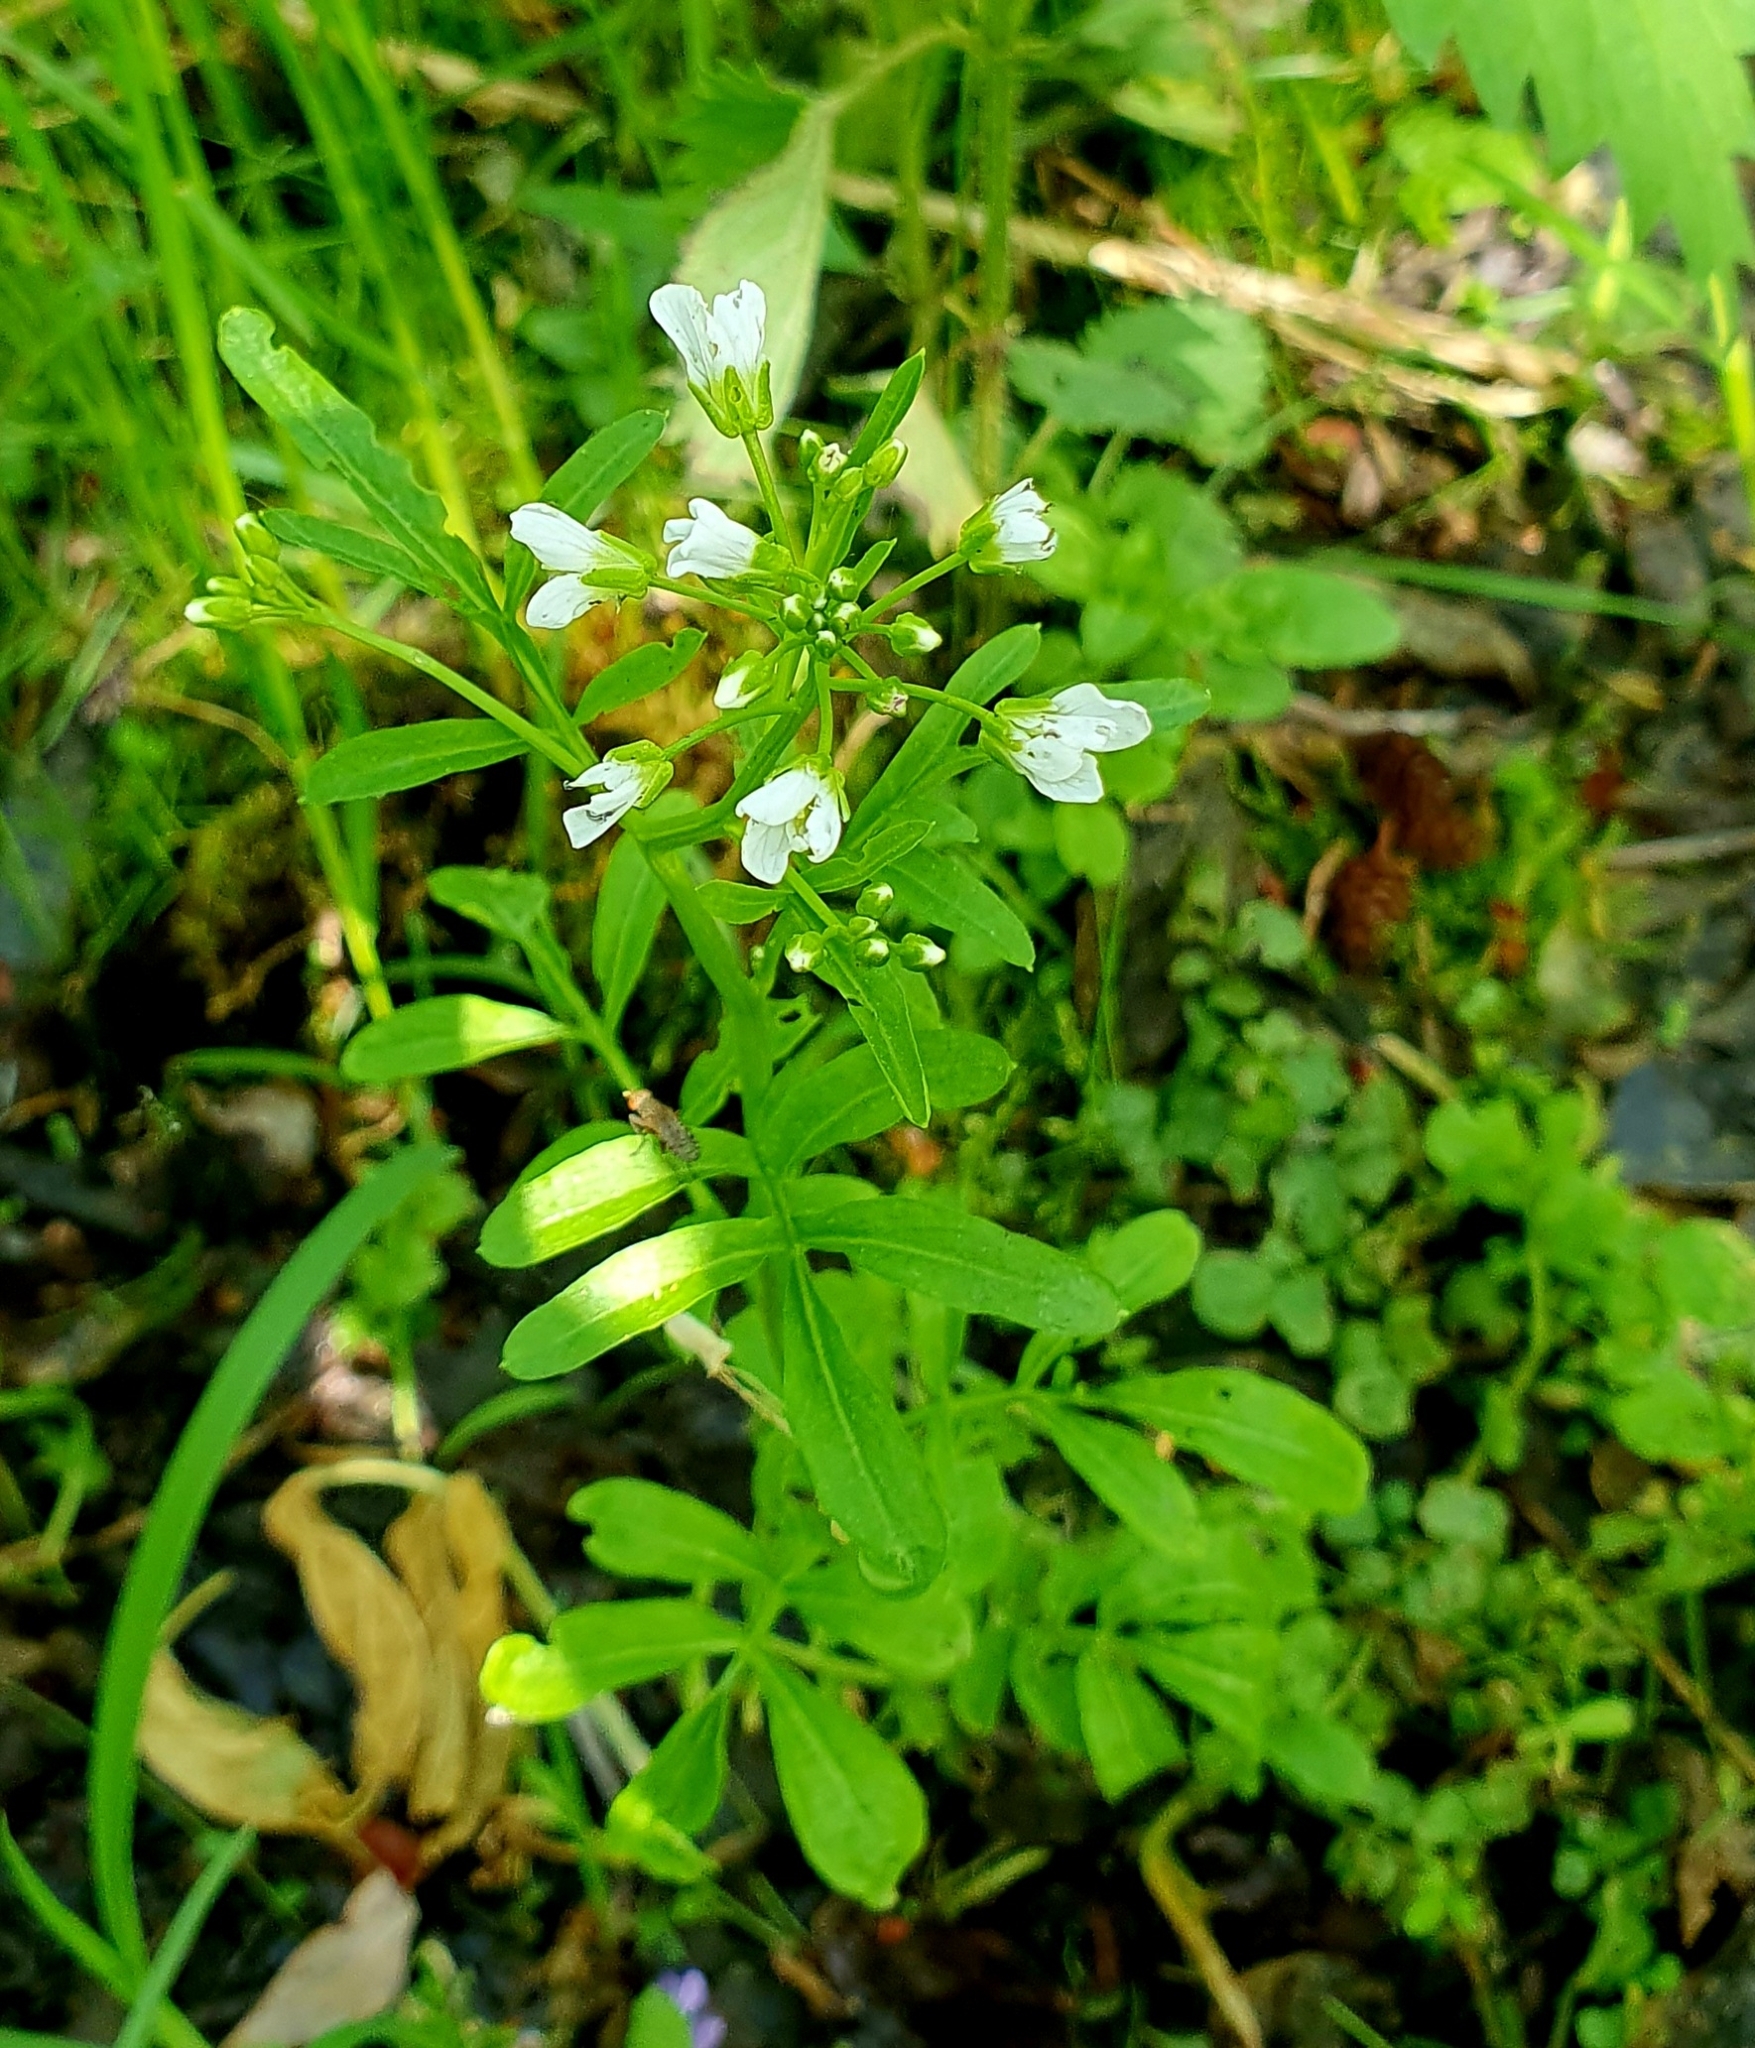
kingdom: Plantae
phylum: Tracheophyta
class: Magnoliopsida
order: Brassicales
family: Brassicaceae
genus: Cardamine
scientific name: Cardamine amara
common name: Large bitter-cress
